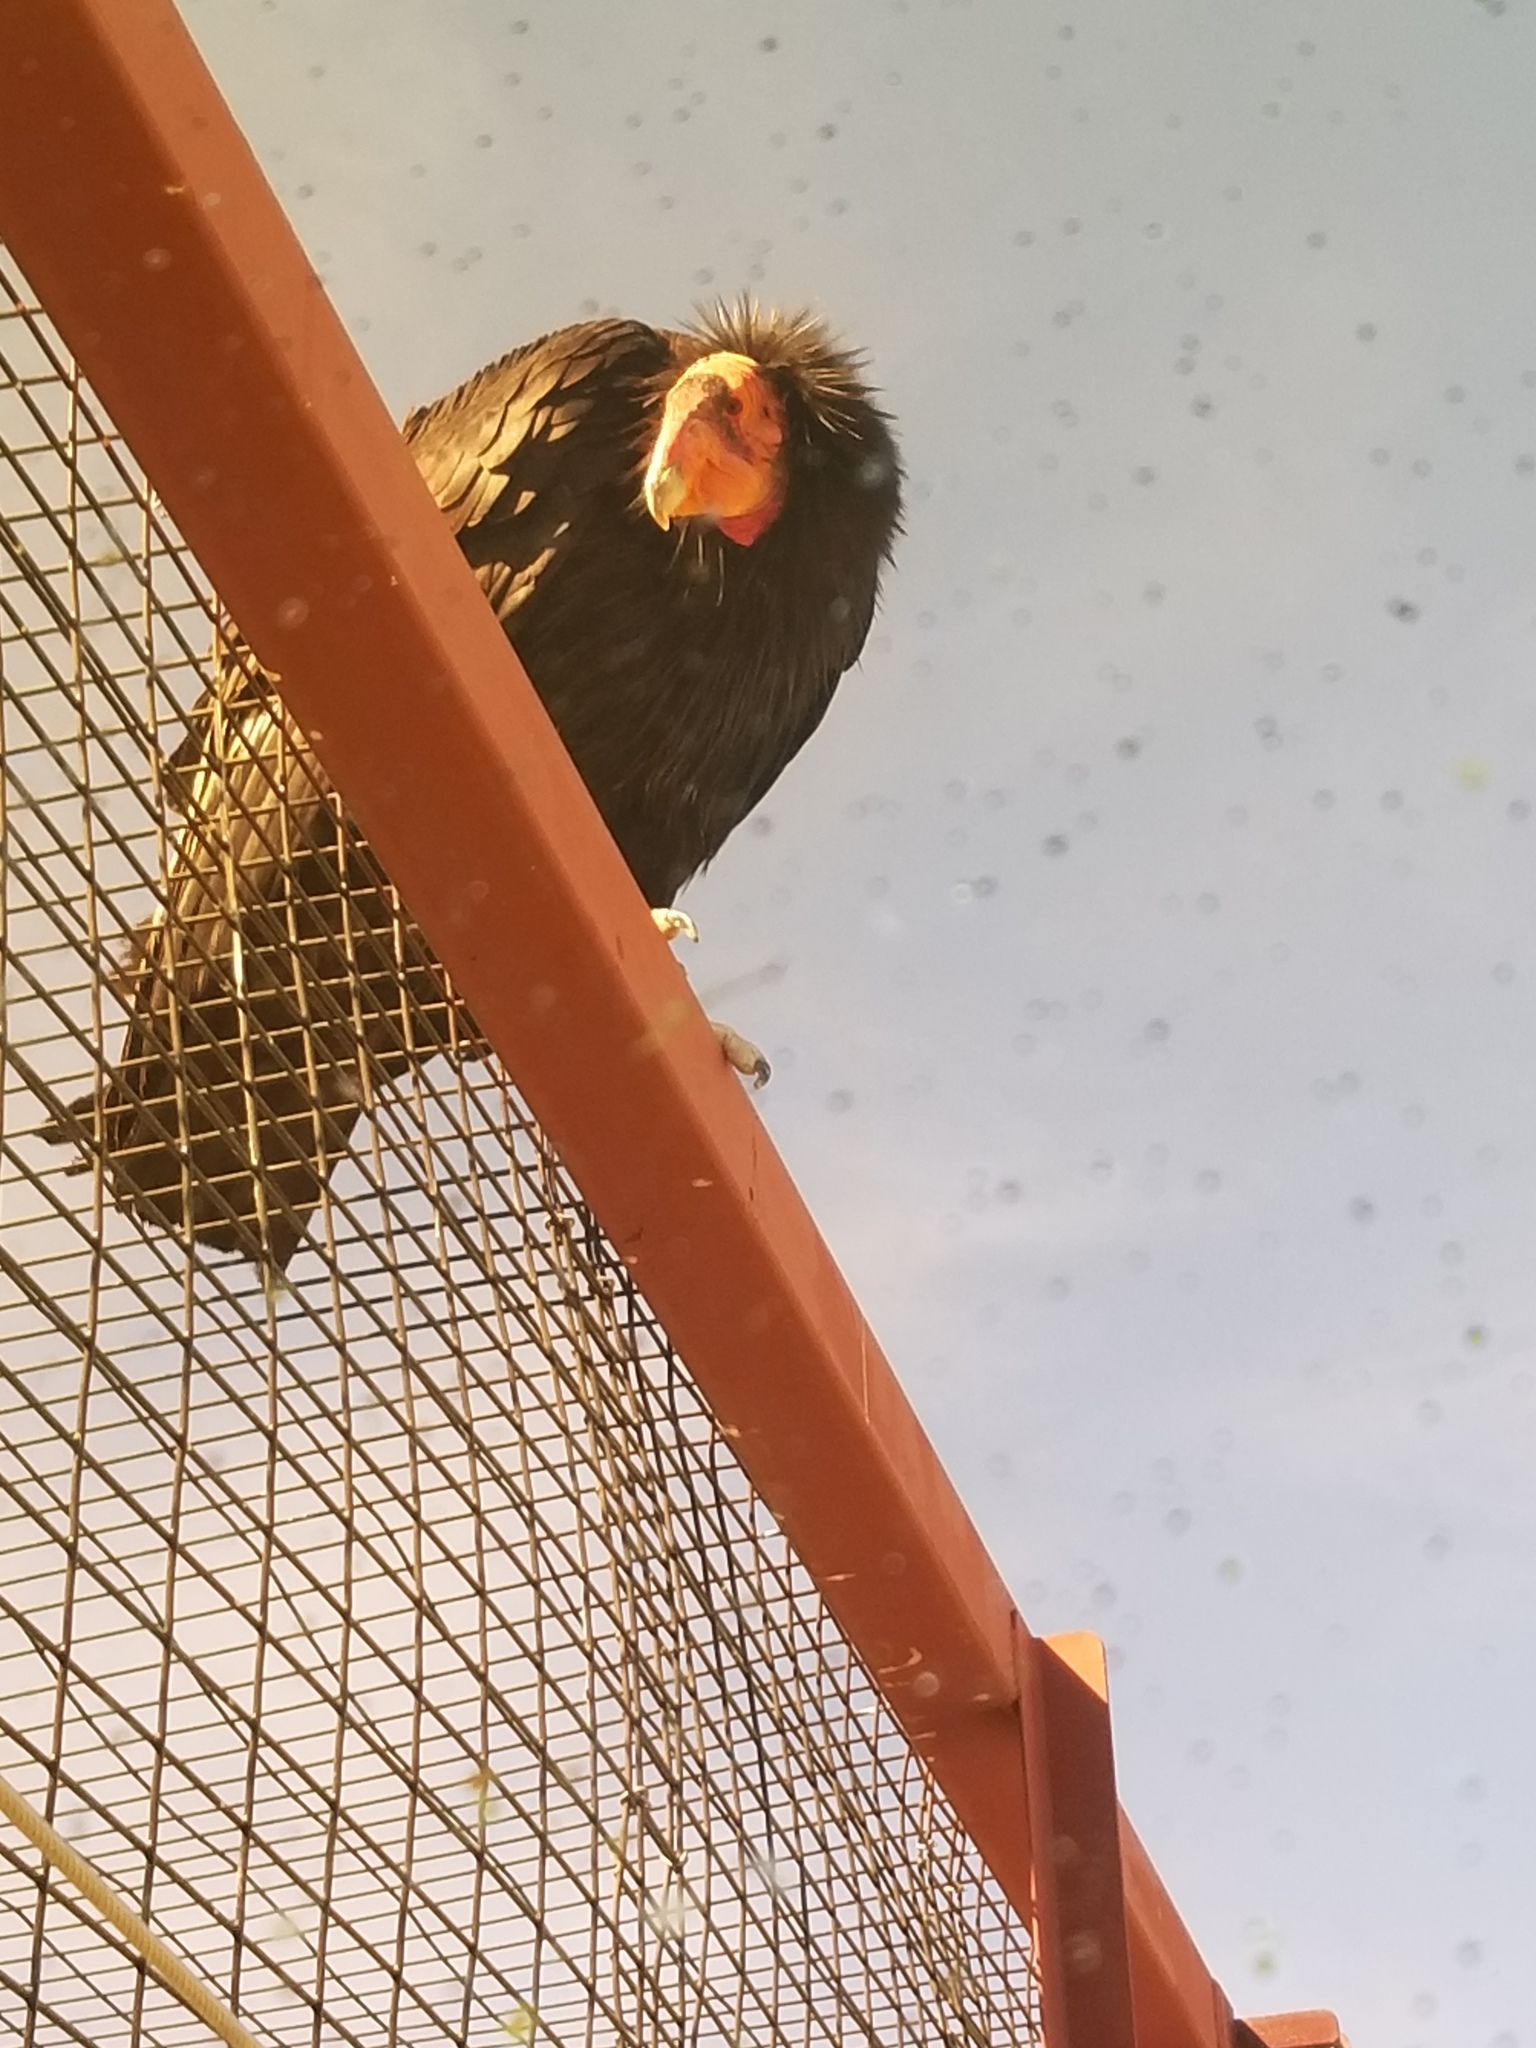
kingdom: Animalia
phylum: Chordata
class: Aves
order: Accipitriformes
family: Cathartidae
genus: Gymnogyps
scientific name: Gymnogyps californianus
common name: California condor
